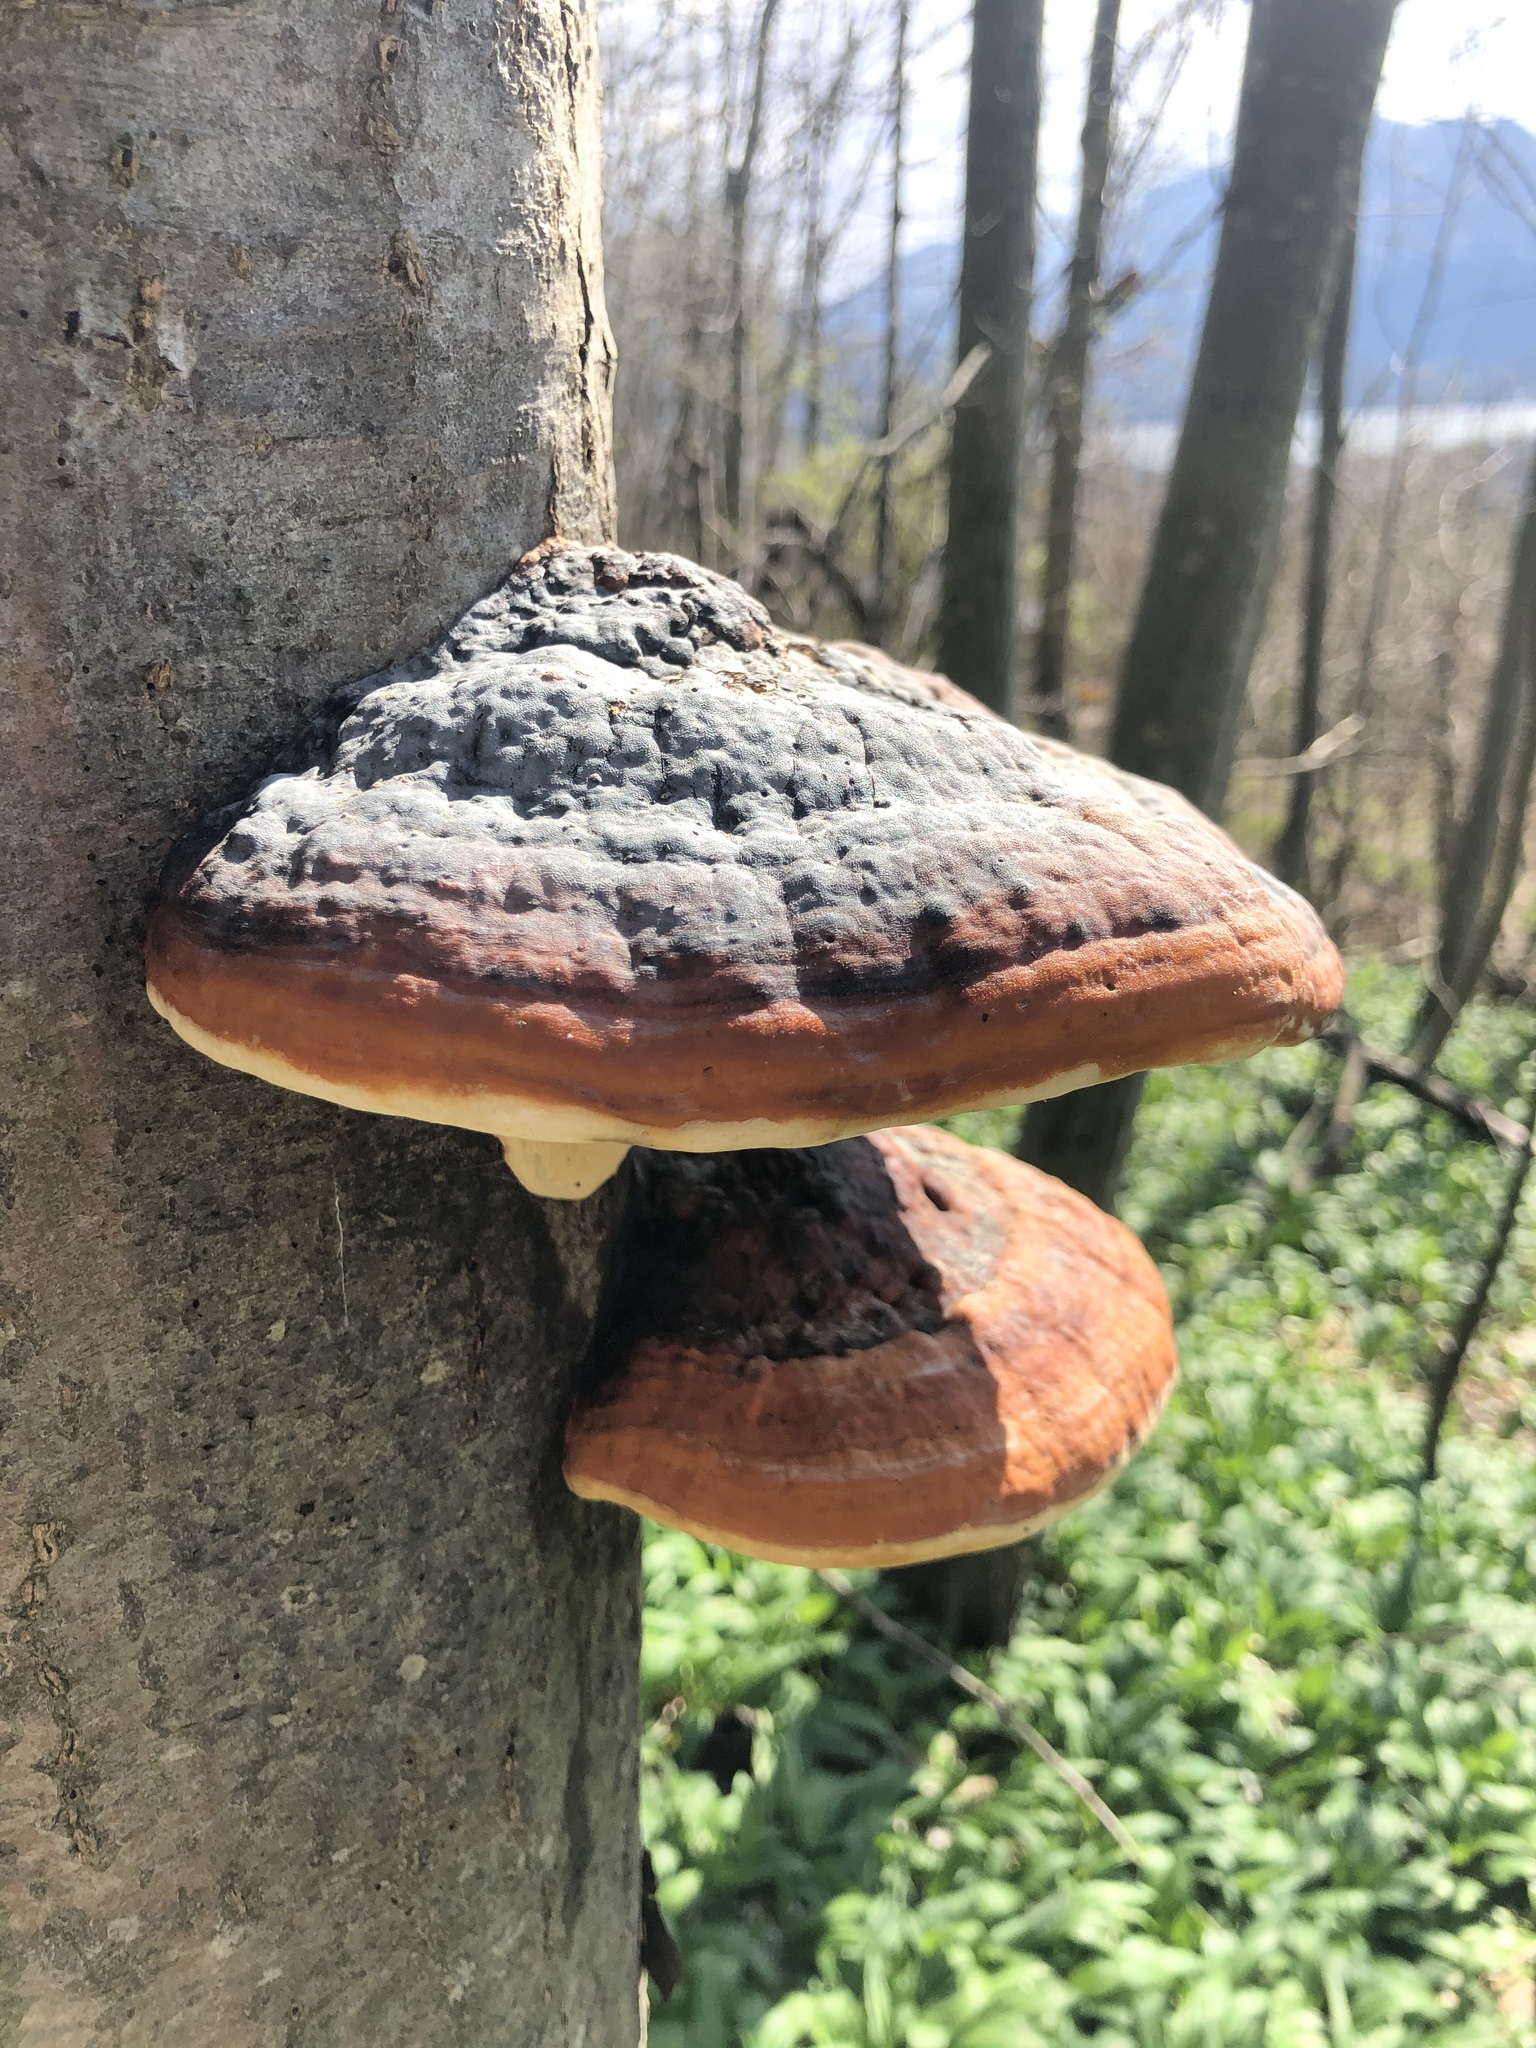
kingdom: Fungi
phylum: Basidiomycota
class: Agaricomycetes
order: Polyporales
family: Fomitopsidaceae
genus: Fomitopsis
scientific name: Fomitopsis pinicola
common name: Red-belted bracket
